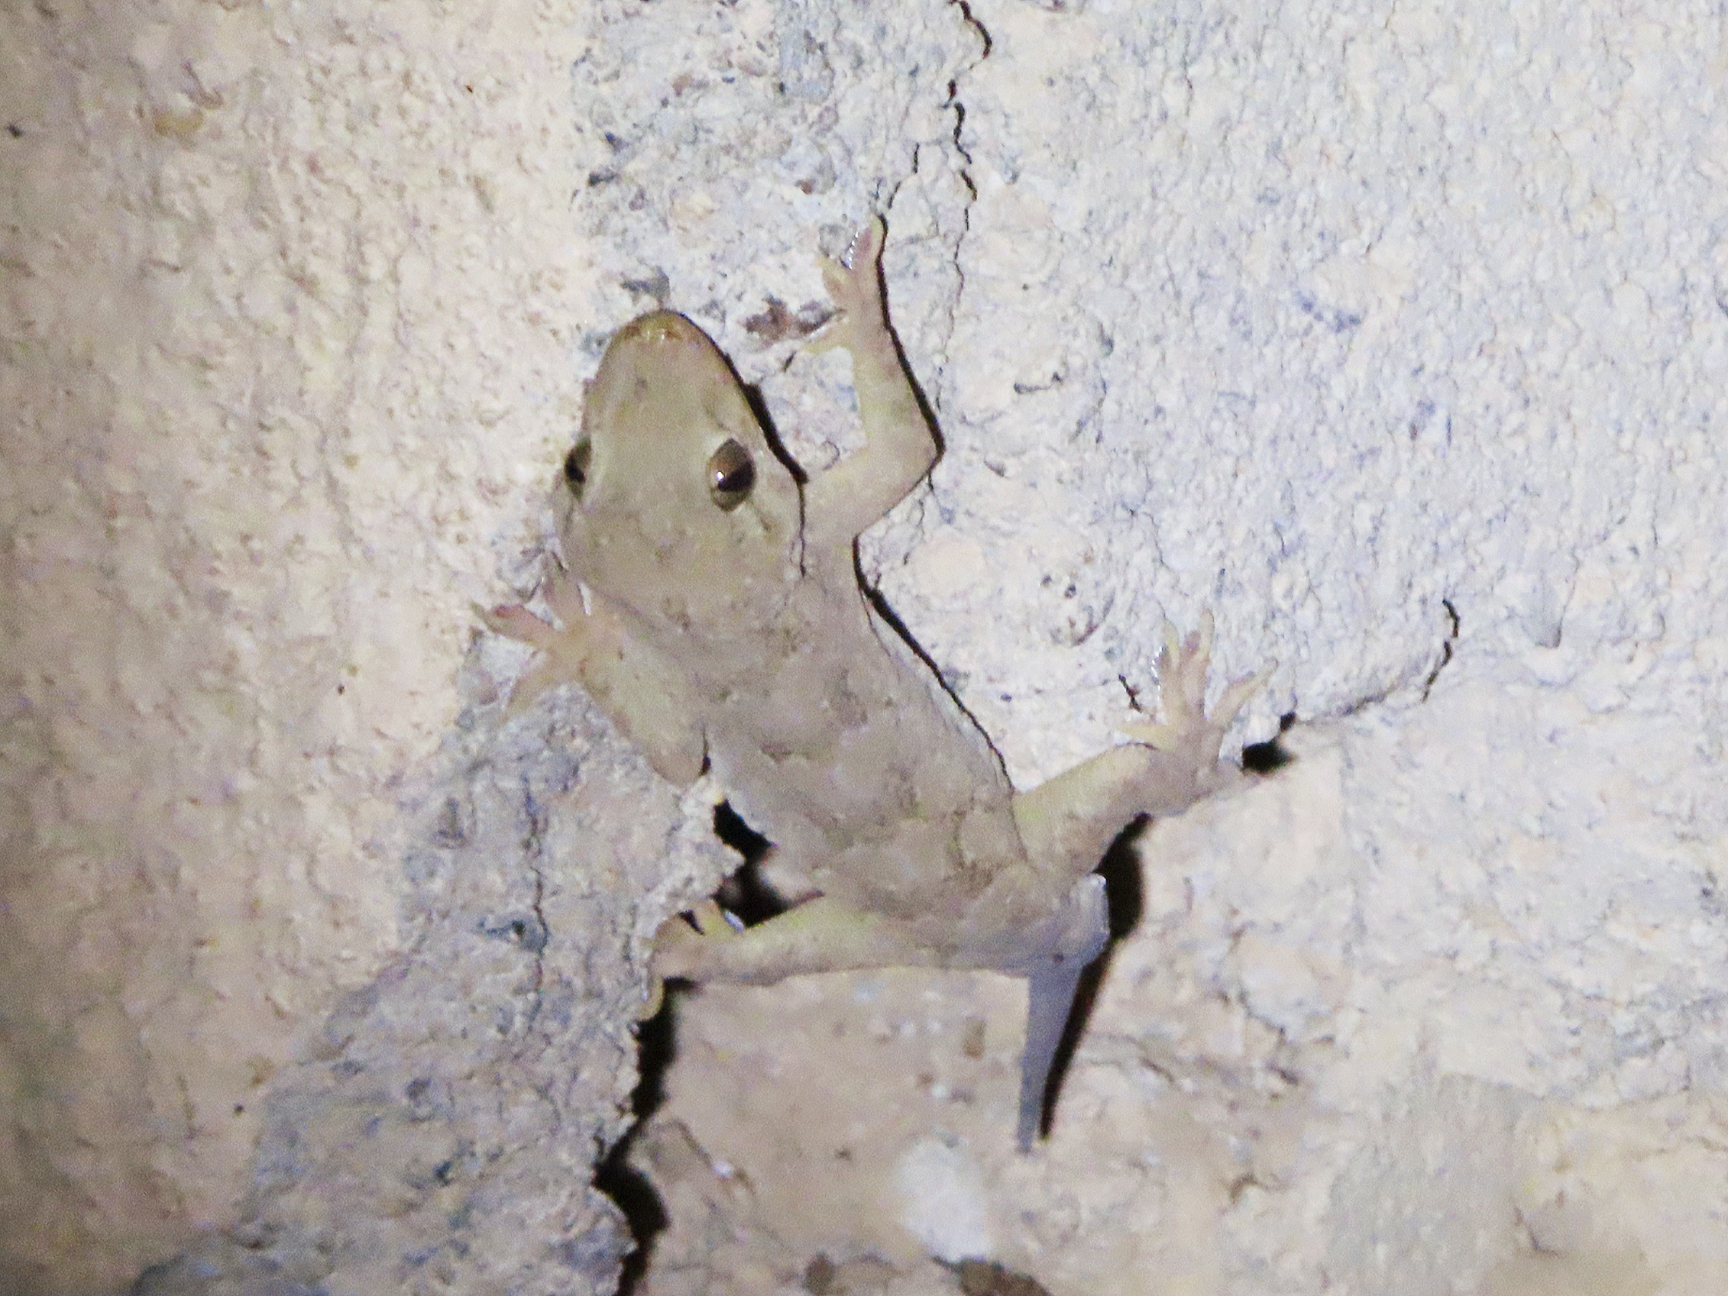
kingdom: Animalia
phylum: Chordata
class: Squamata
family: Gekkonidae
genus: Hemidactylus
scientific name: Hemidactylus flaviviridis
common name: Northern house gecko
